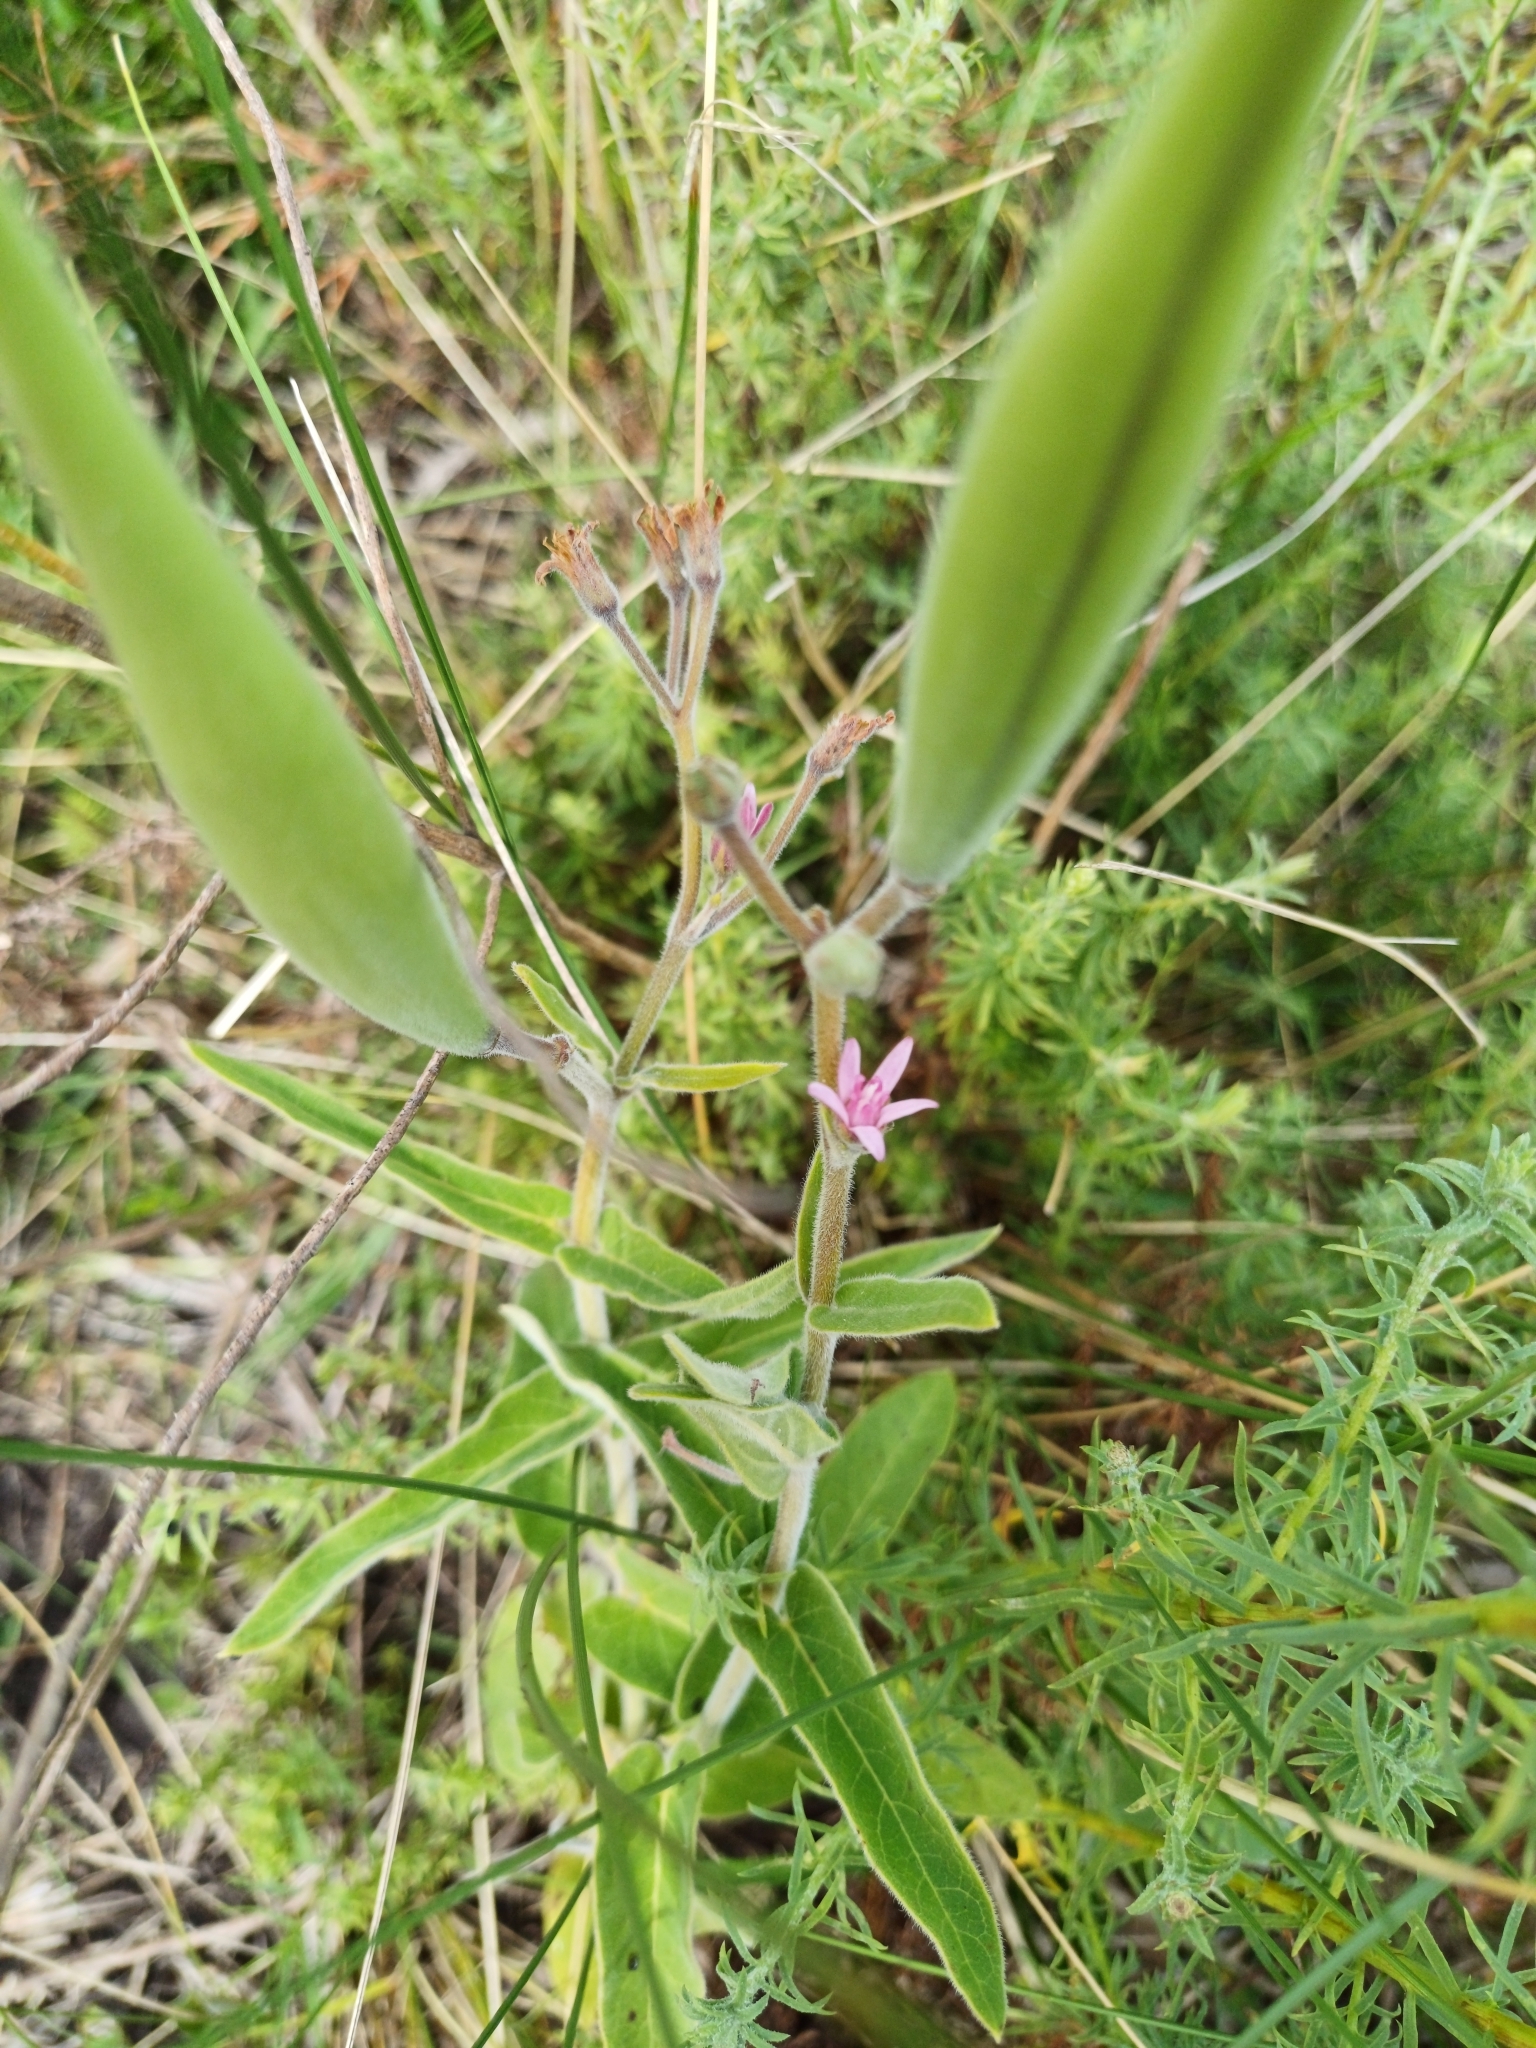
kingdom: Plantae
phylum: Tracheophyta
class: Magnoliopsida
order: Gentianales
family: Apocynaceae
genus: Oxypetalum
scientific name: Oxypetalum solanoides
